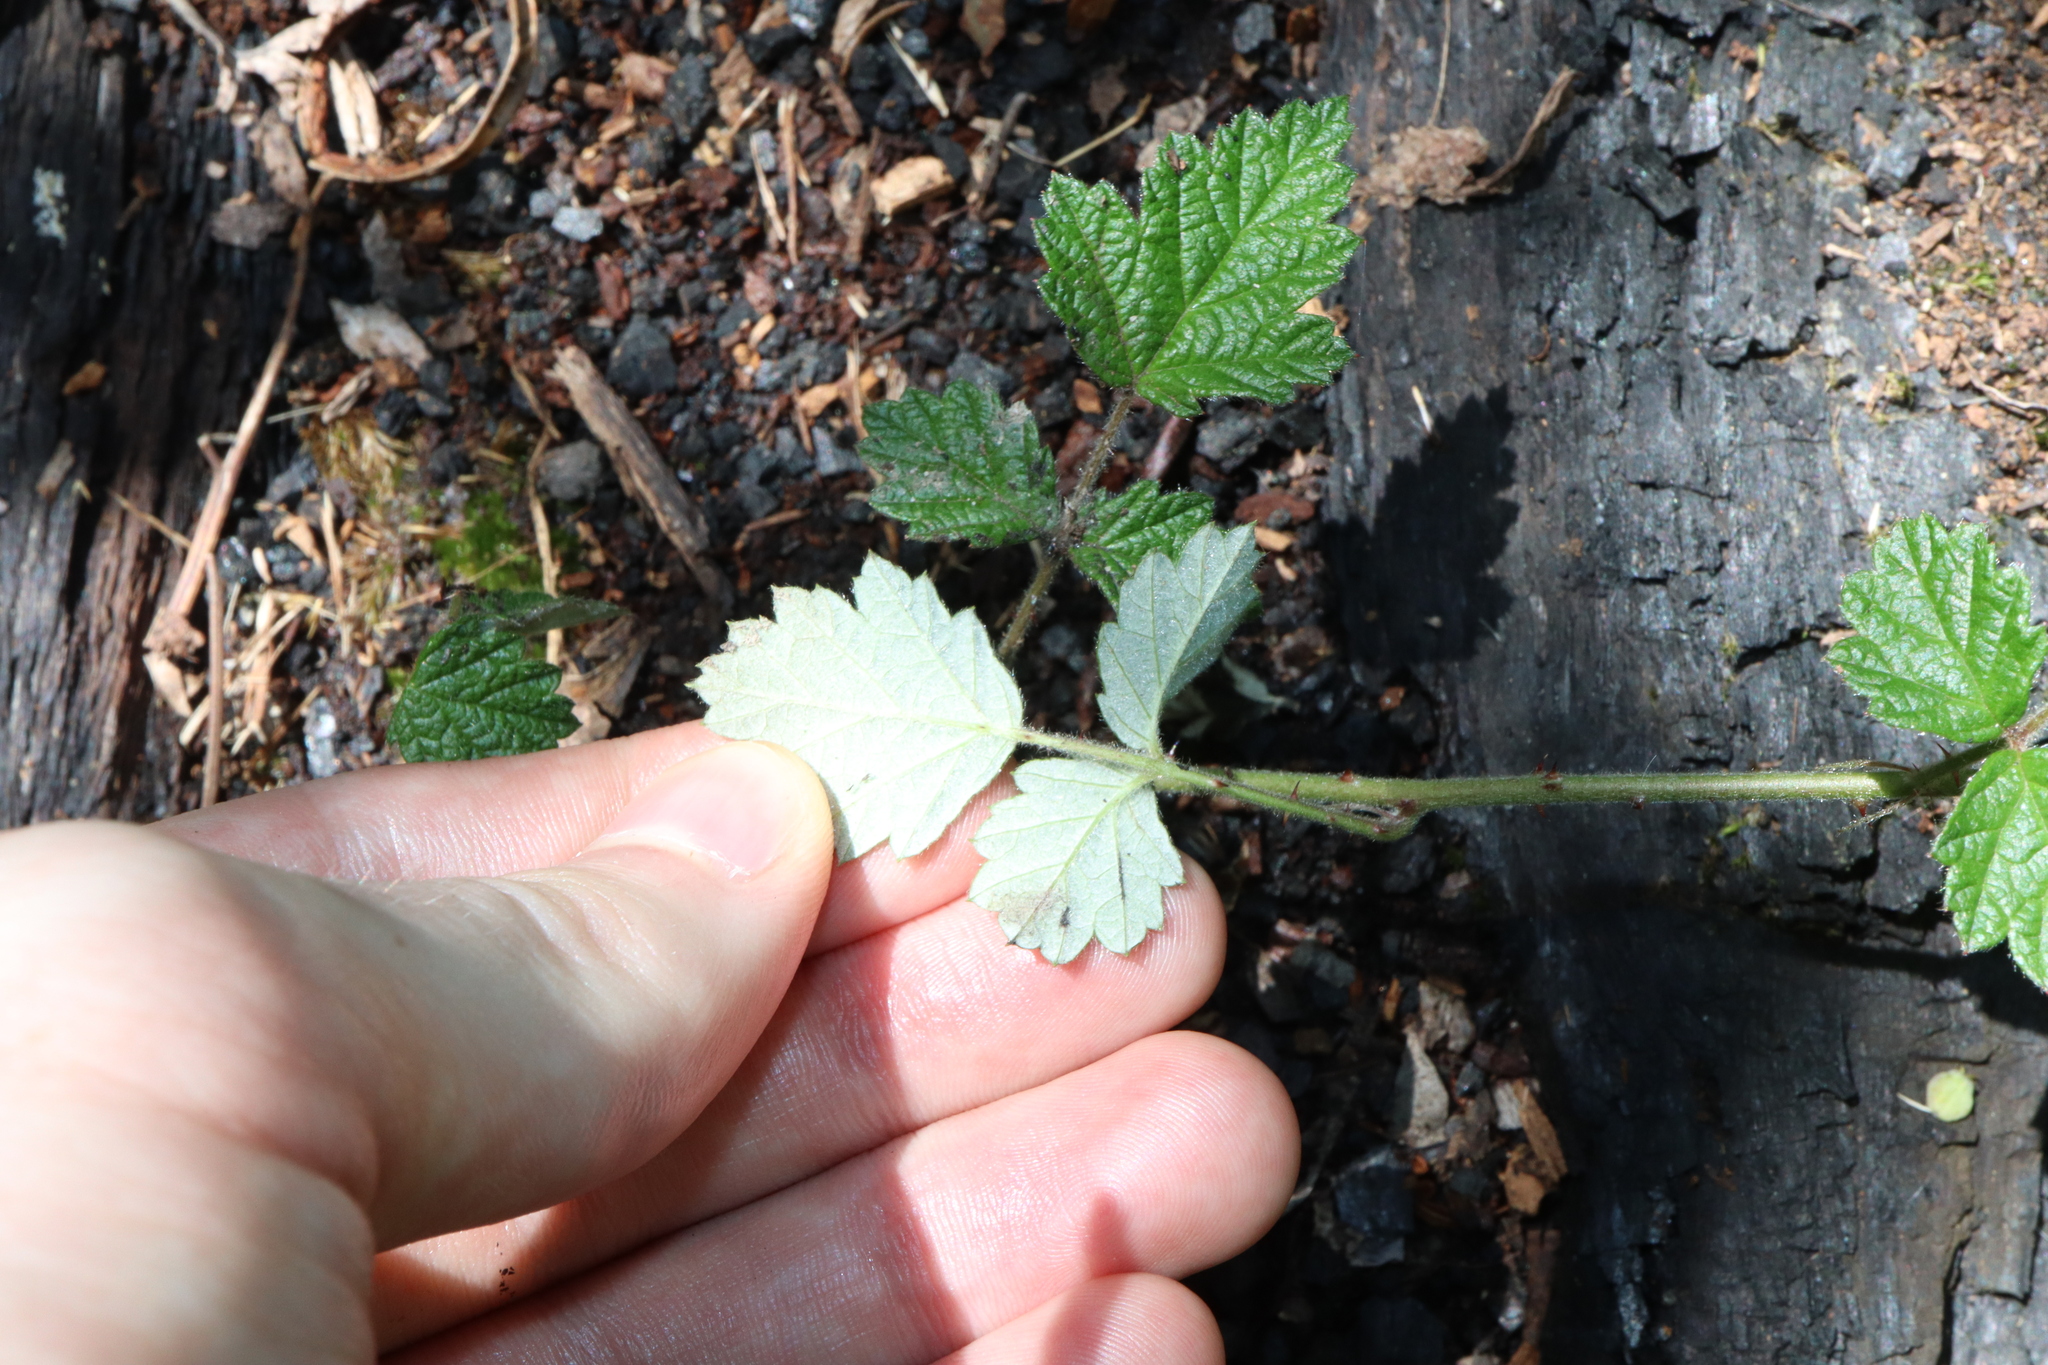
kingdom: Plantae
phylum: Tracheophyta
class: Magnoliopsida
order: Rosales
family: Rosaceae
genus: Rubus
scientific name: Rubus parvifolius
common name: Threeleaf blackberry
